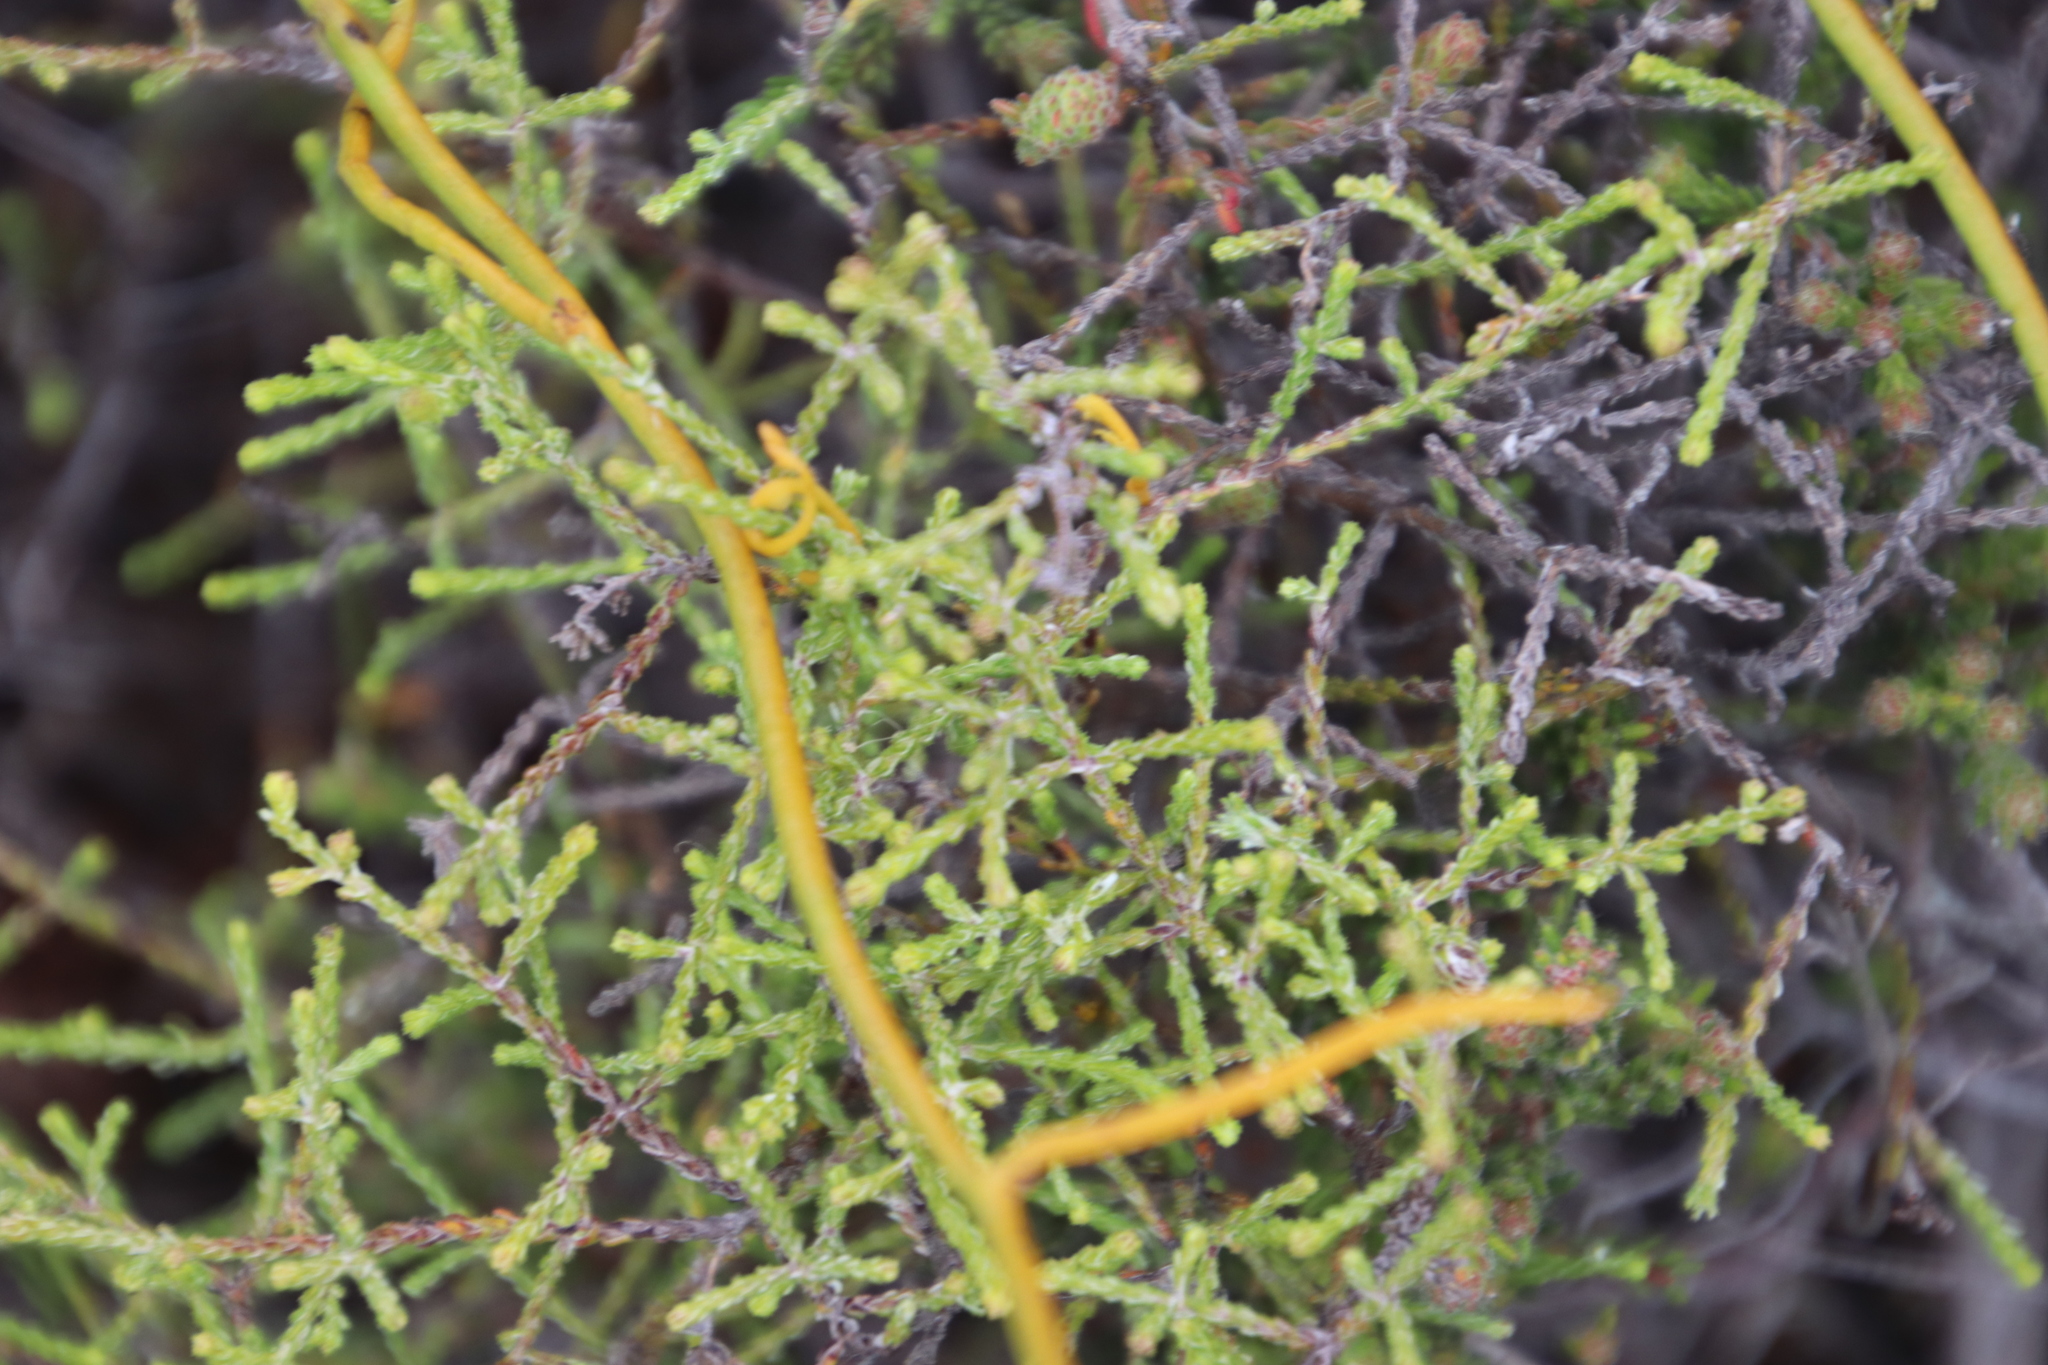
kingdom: Plantae
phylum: Tracheophyta
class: Magnoliopsida
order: Laurales
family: Lauraceae
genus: Cassytha
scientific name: Cassytha ciliolata
